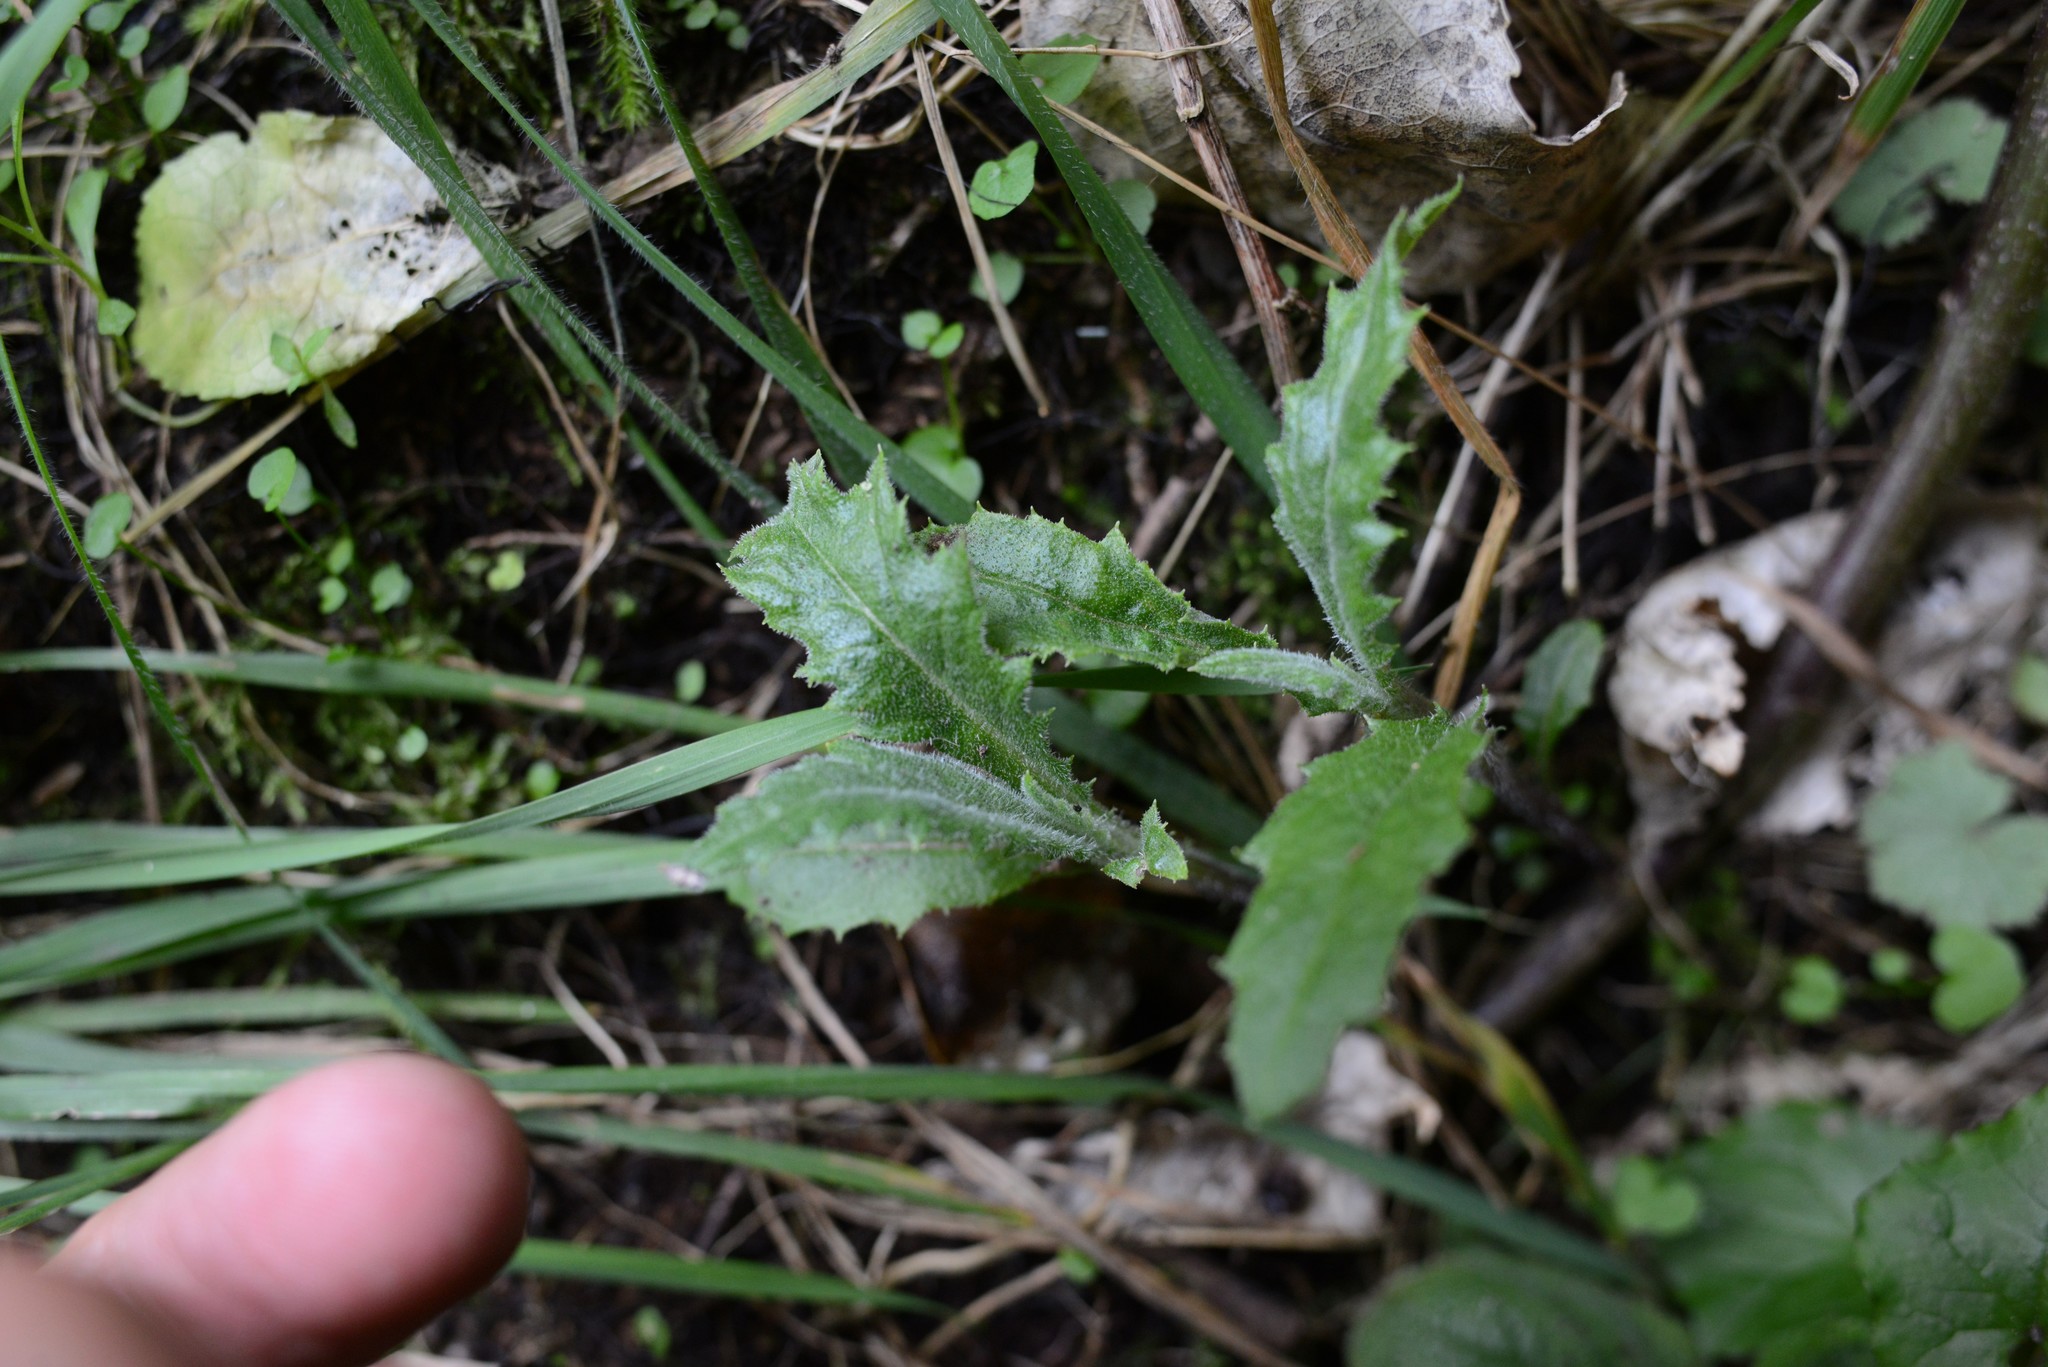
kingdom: Plantae
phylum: Tracheophyta
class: Magnoliopsida
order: Asterales
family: Asteraceae
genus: Senecio
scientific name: Senecio minimus
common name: Toothed fireweed
